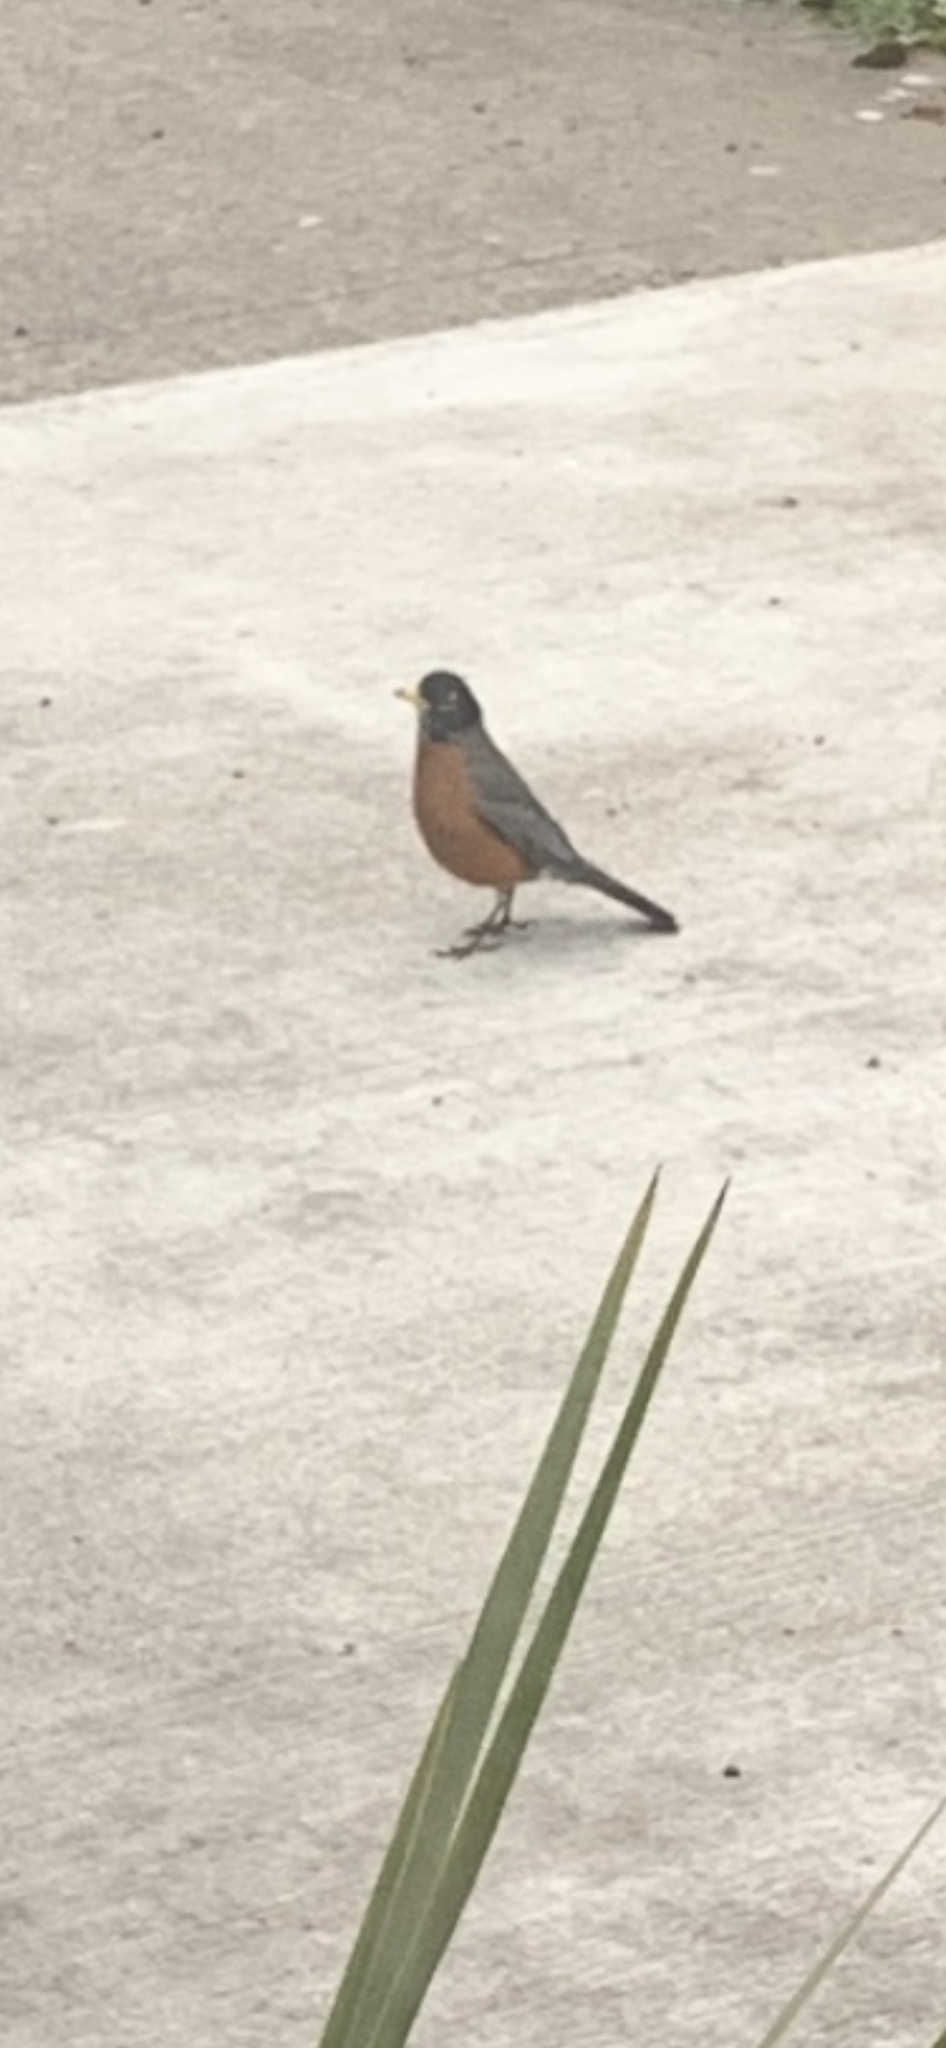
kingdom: Animalia
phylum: Chordata
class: Aves
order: Passeriformes
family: Turdidae
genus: Turdus
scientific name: Turdus migratorius
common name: American robin
